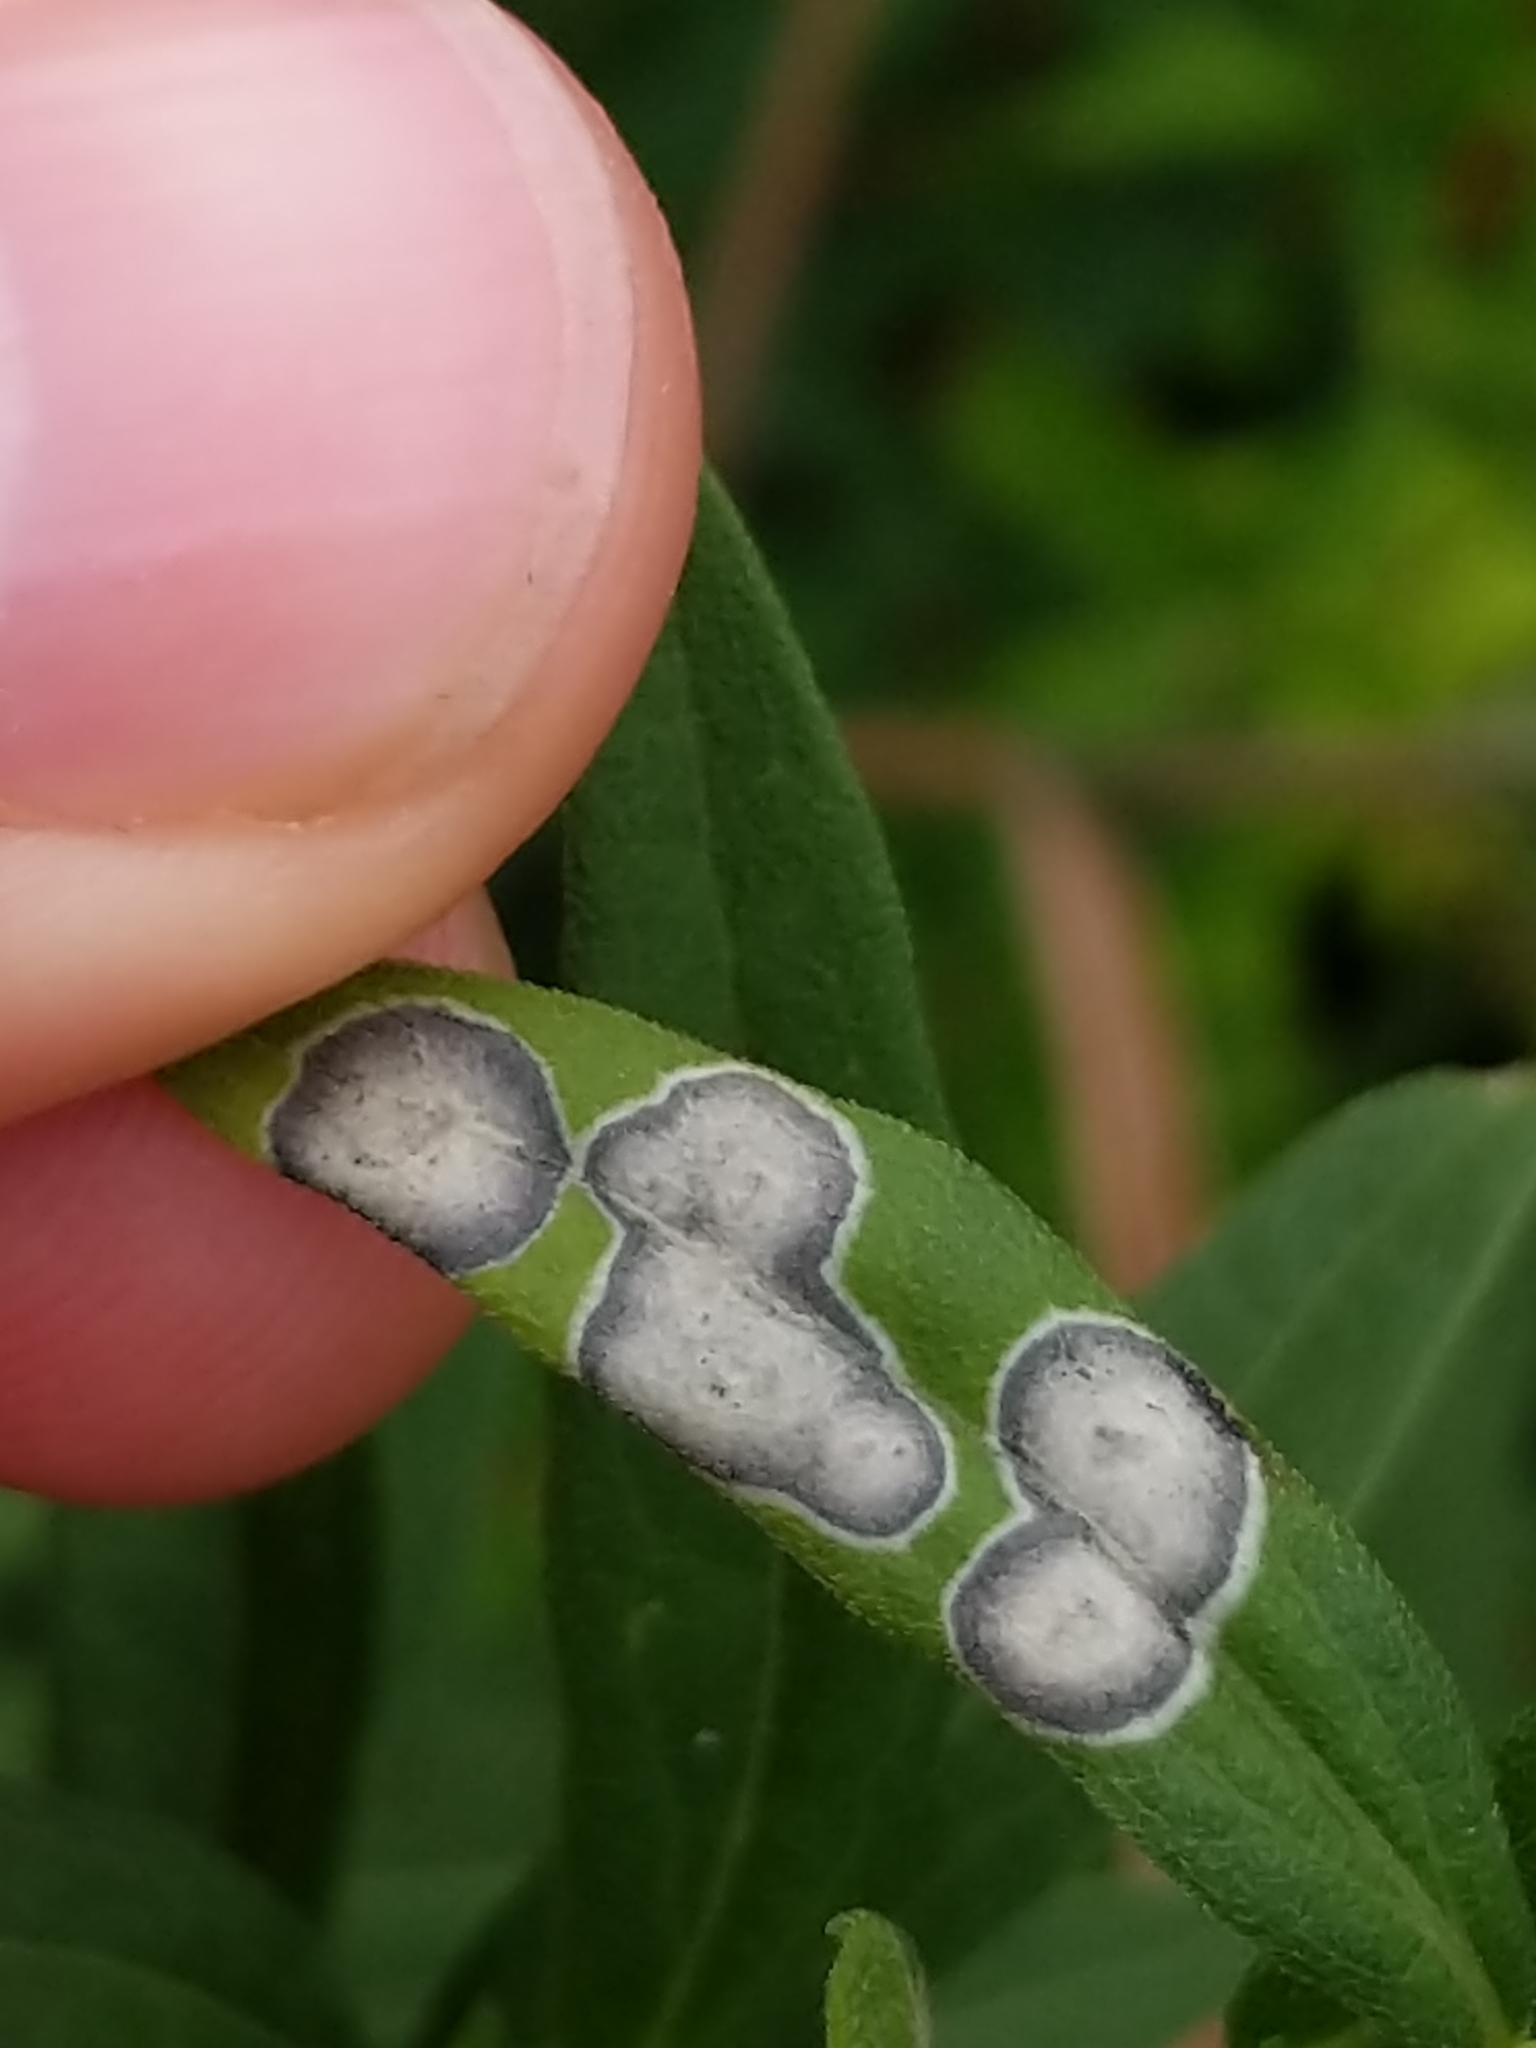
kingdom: Animalia
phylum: Arthropoda
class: Insecta
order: Diptera
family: Cecidomyiidae
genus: Asteromyia
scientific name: Asteromyia carbonifera
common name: Carbonifera goldenrod gall midge
